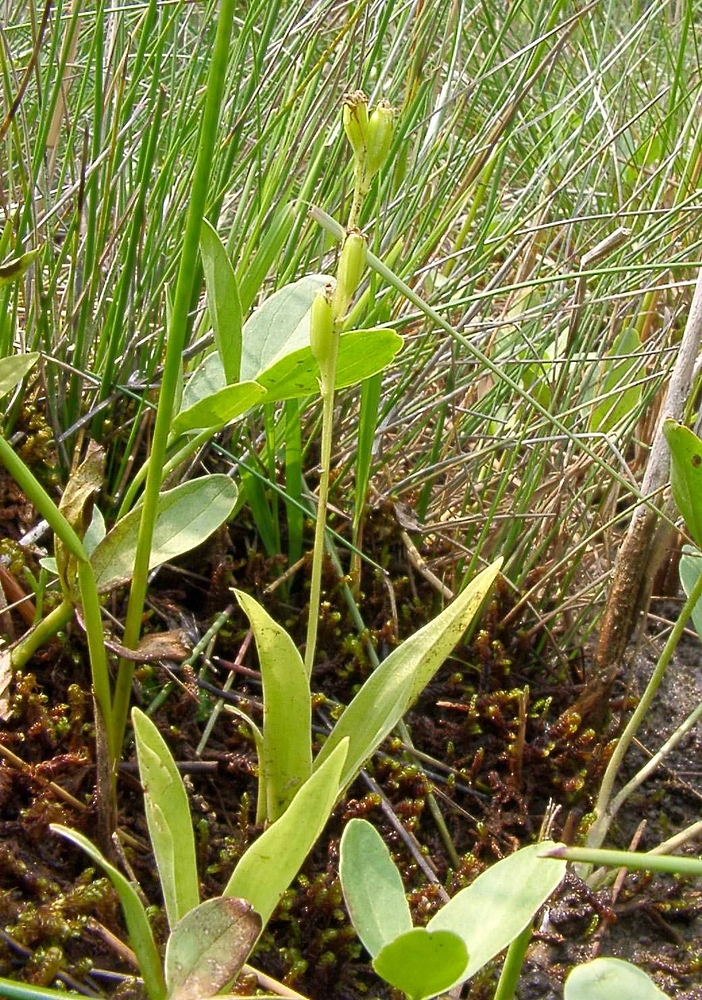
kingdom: Animalia
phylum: Arthropoda
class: Insecta
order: Coleoptera
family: Curculionidae
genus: Liparis
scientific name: Liparis loeselii
